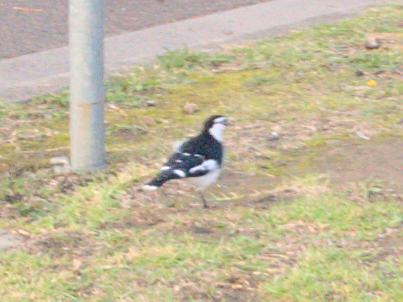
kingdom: Animalia
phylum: Chordata
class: Aves
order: Passeriformes
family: Monarchidae
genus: Grallina
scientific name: Grallina cyanoleuca
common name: Magpie-lark
